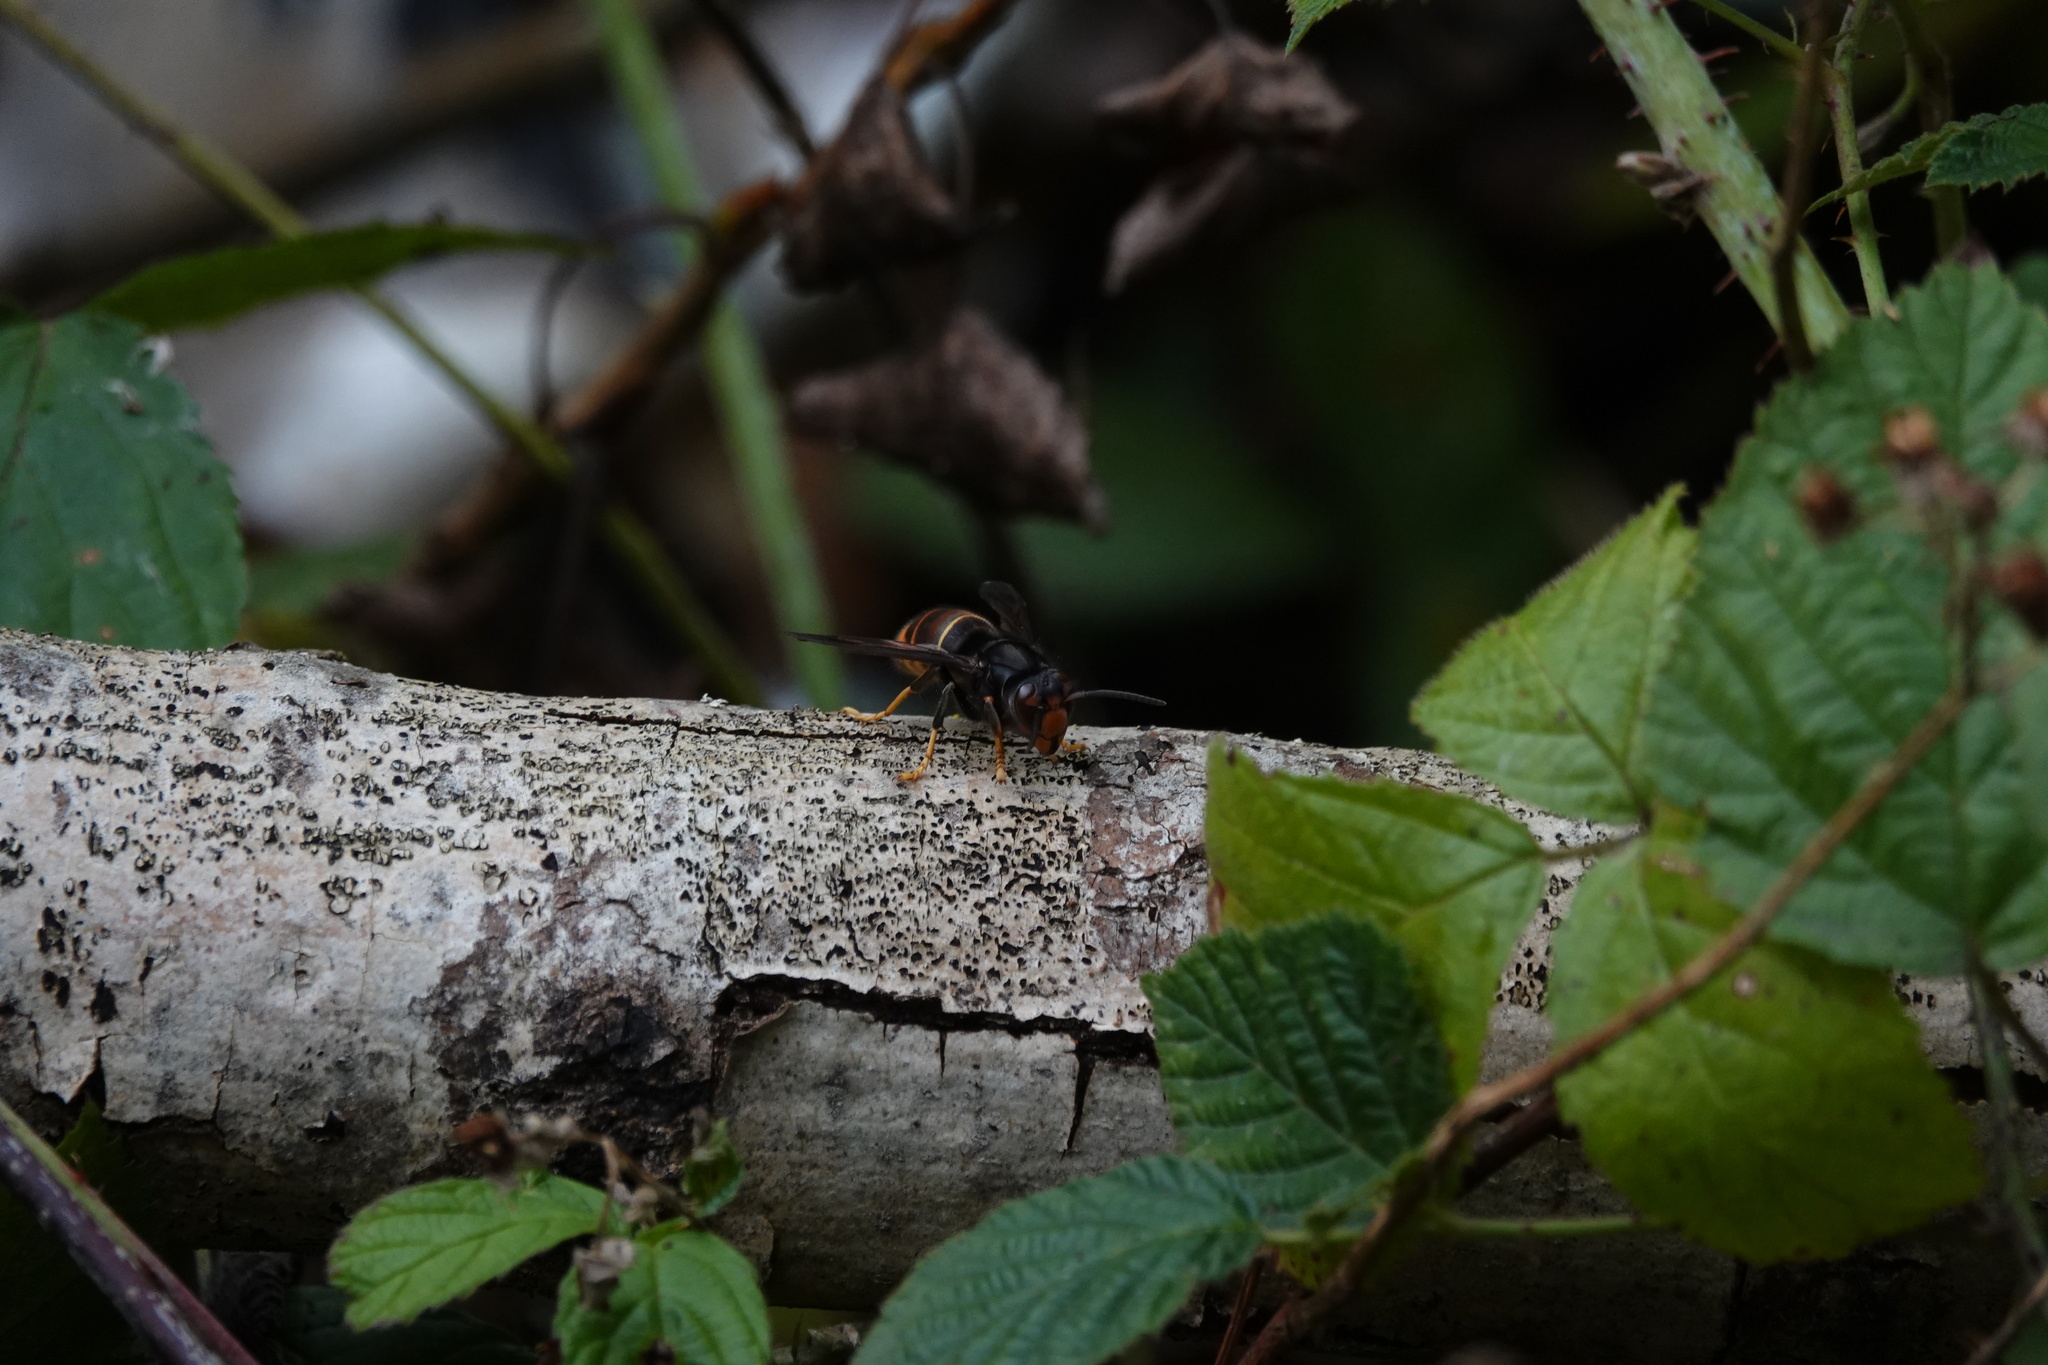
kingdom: Animalia
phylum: Arthropoda
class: Insecta
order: Hymenoptera
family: Vespidae
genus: Vespa
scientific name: Vespa velutina
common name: Asian hornet
